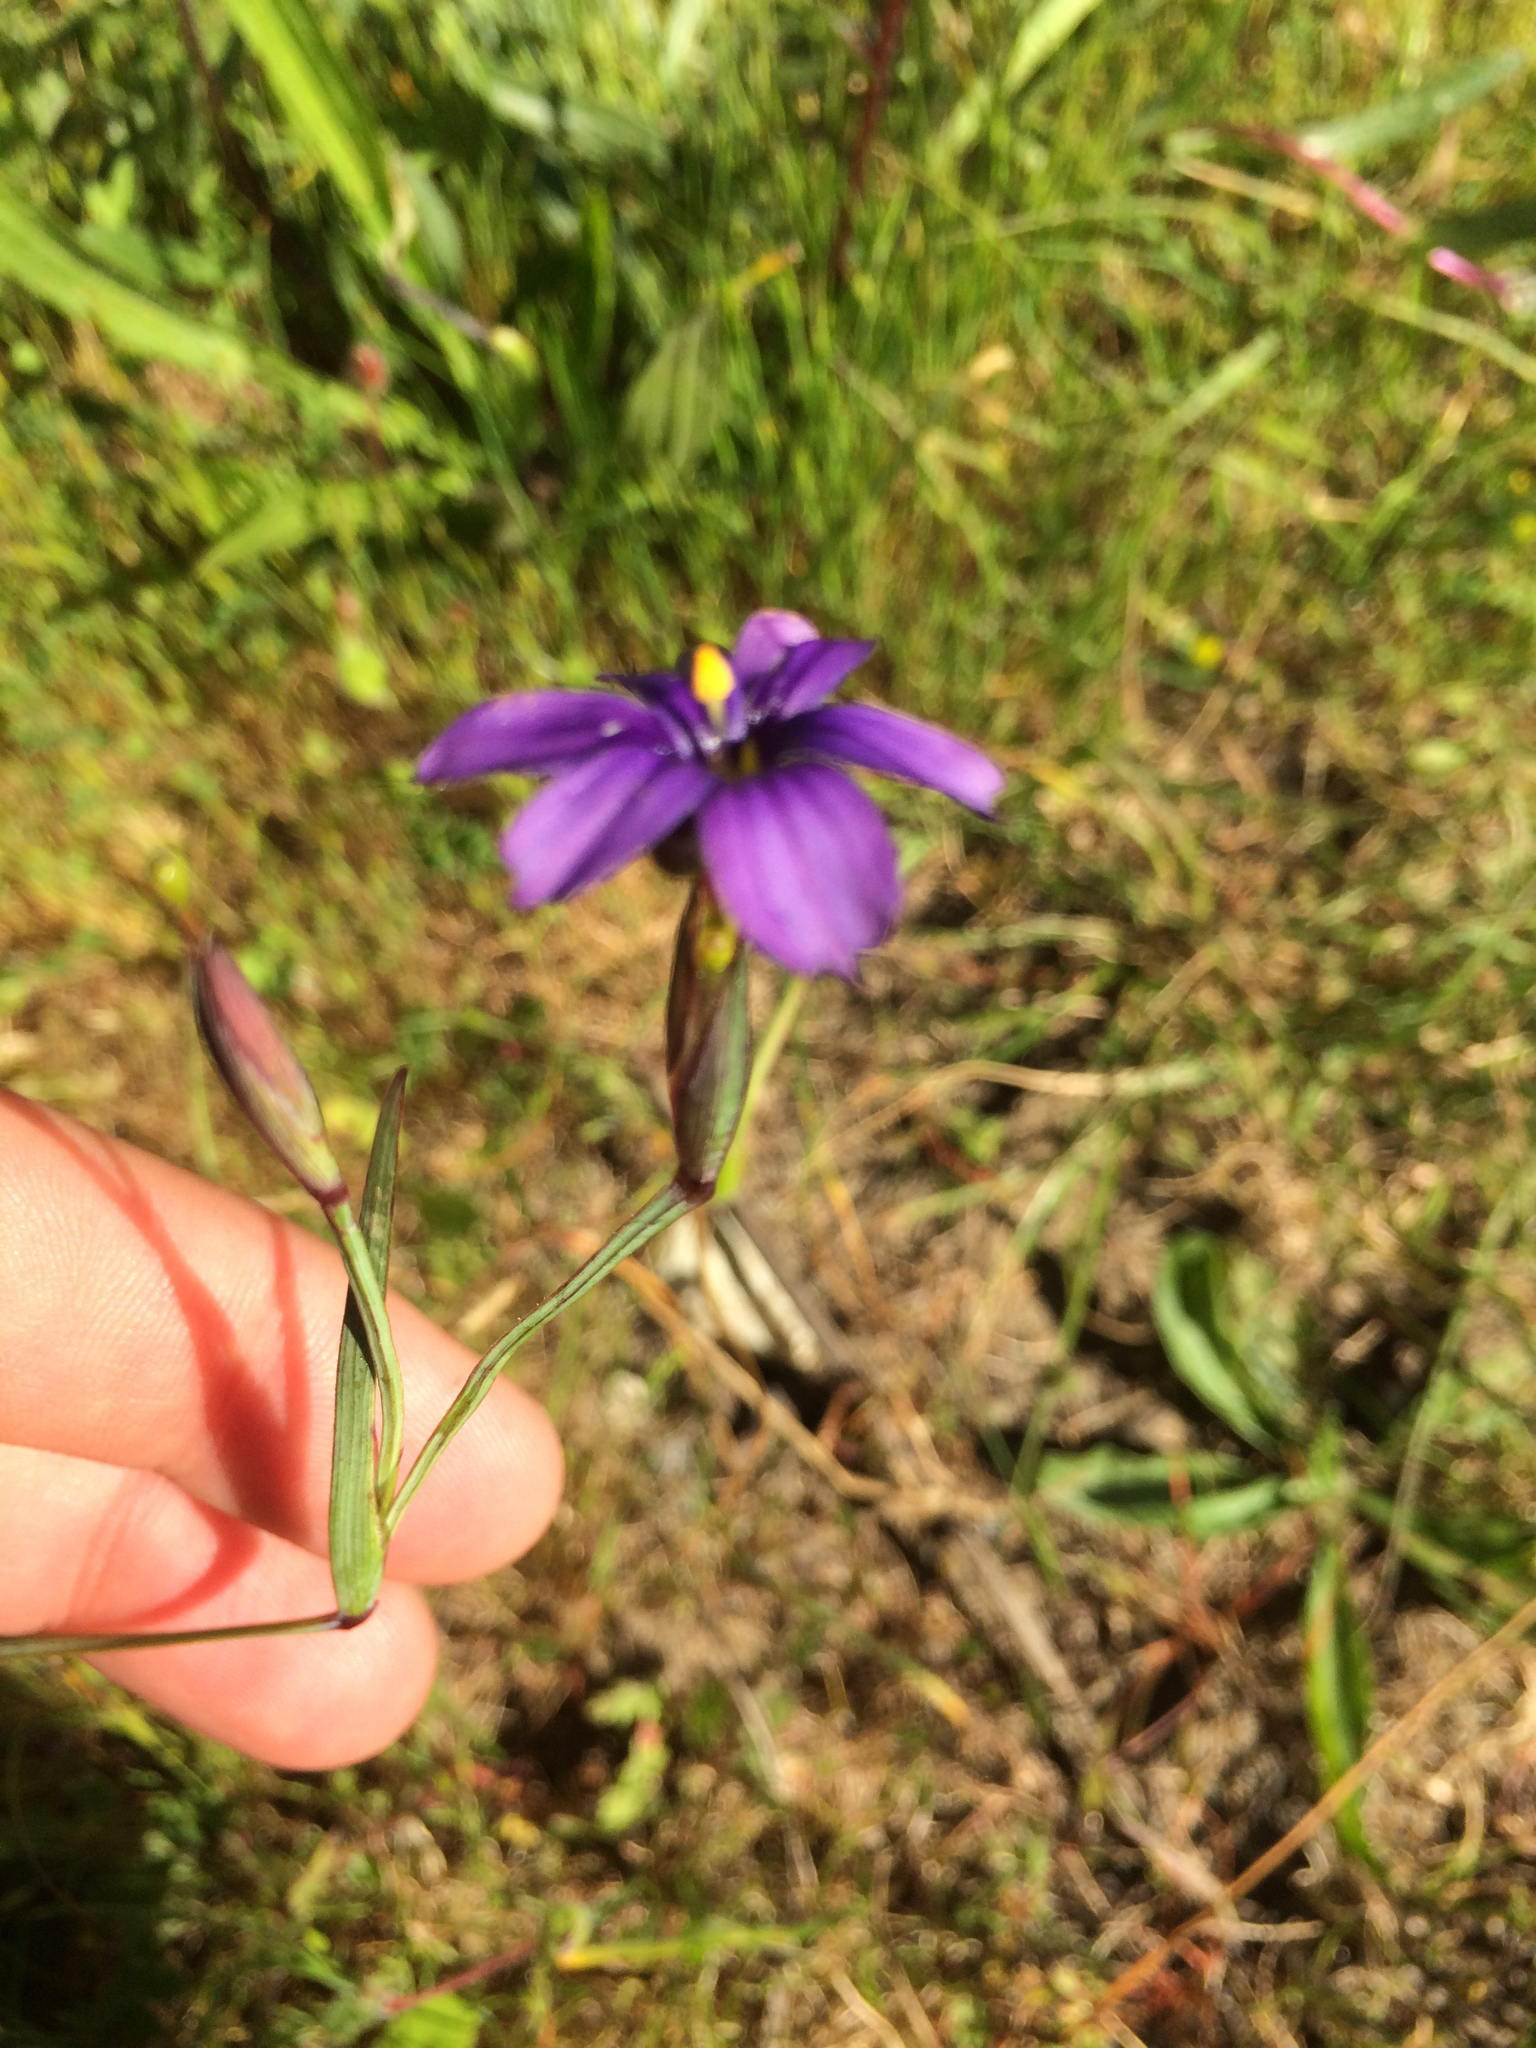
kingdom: Plantae
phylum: Tracheophyta
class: Liliopsida
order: Asparagales
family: Iridaceae
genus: Sisyrinchium
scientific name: Sisyrinchium bellum
